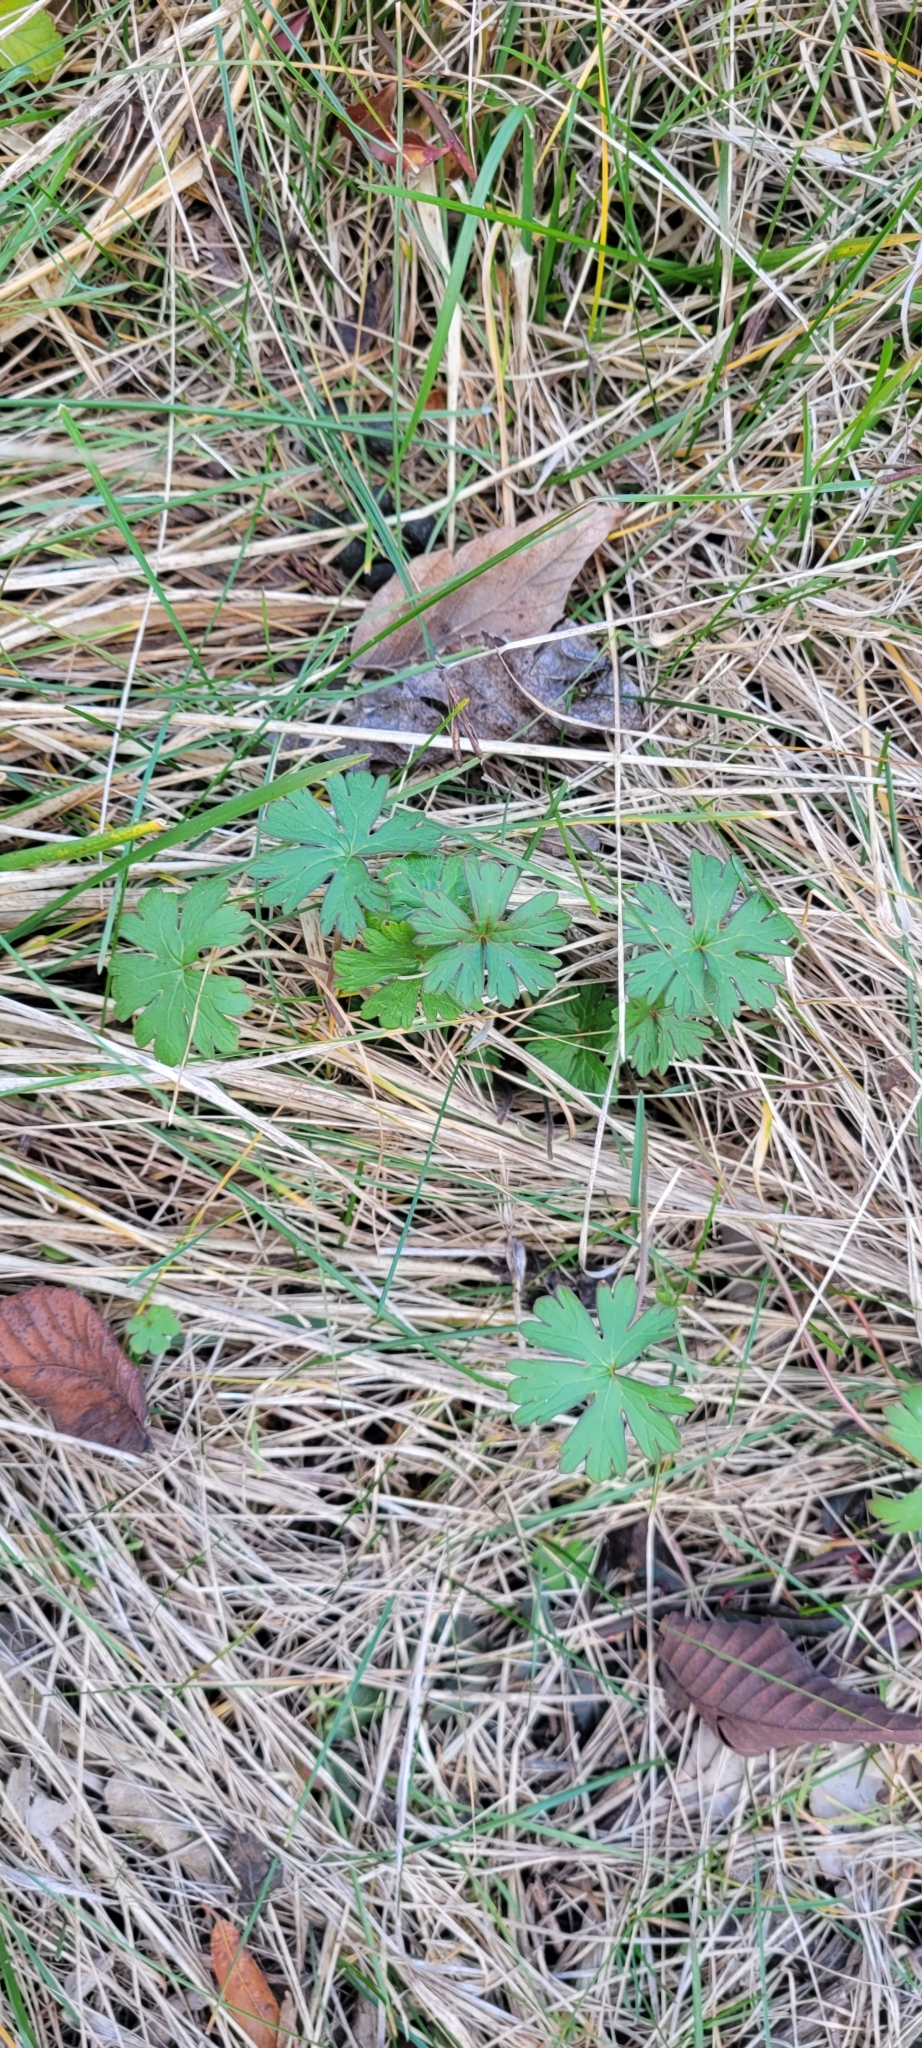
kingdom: Plantae
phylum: Tracheophyta
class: Magnoliopsida
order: Geraniales
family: Geraniaceae
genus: Geranium
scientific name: Geranium carolinianum
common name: Carolina crane's-bill
